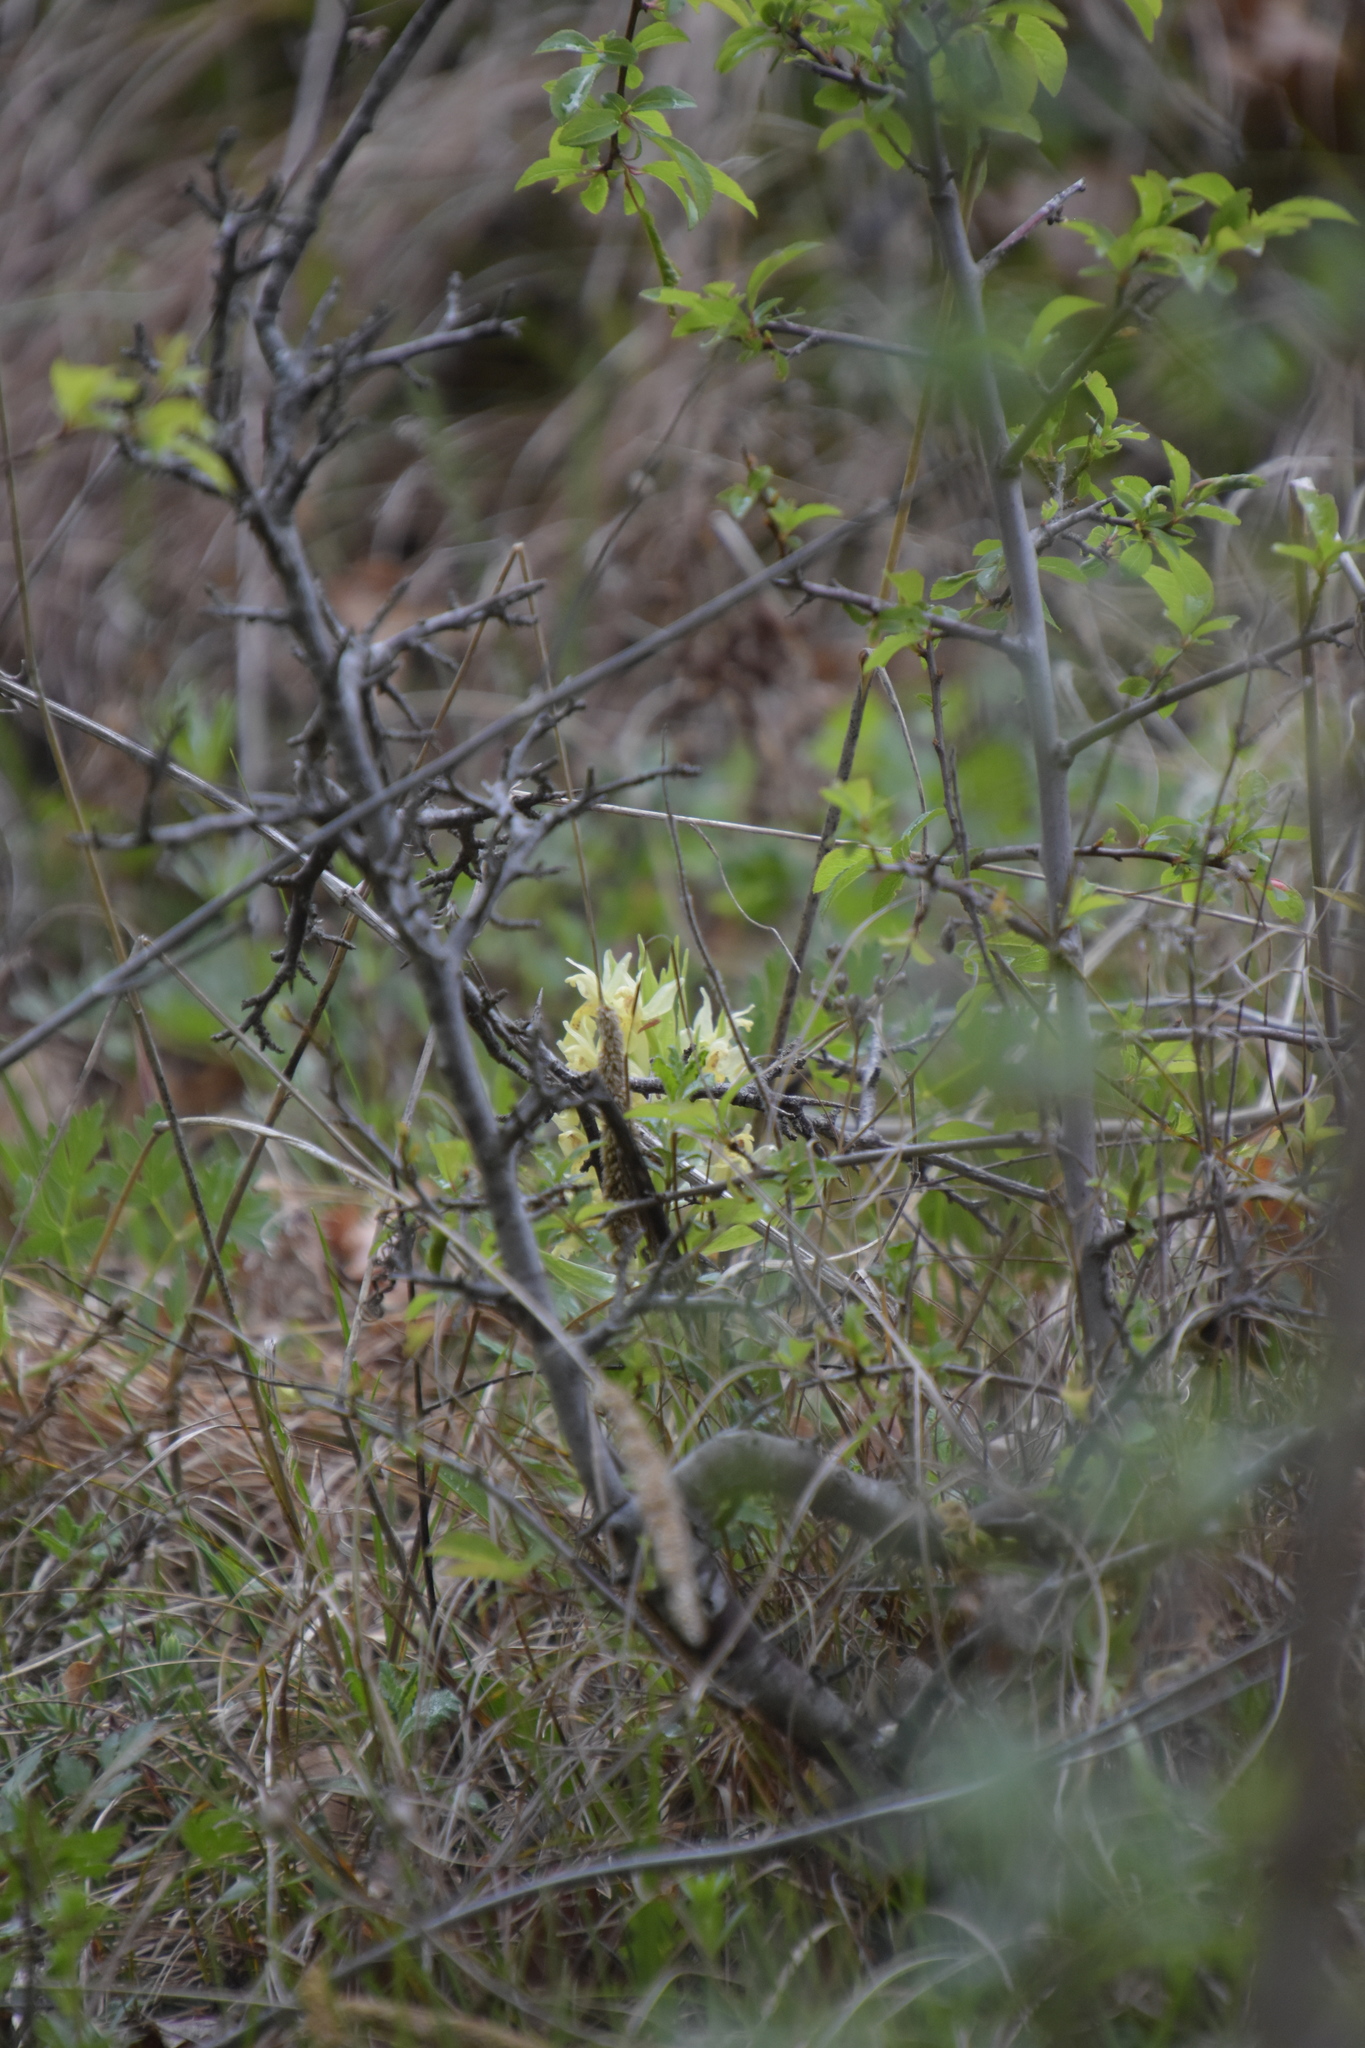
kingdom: Plantae
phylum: Tracheophyta
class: Liliopsida
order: Asparagales
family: Orchidaceae
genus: Dactylorhiza
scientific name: Dactylorhiza sambucina
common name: Elder-flowered orchid
